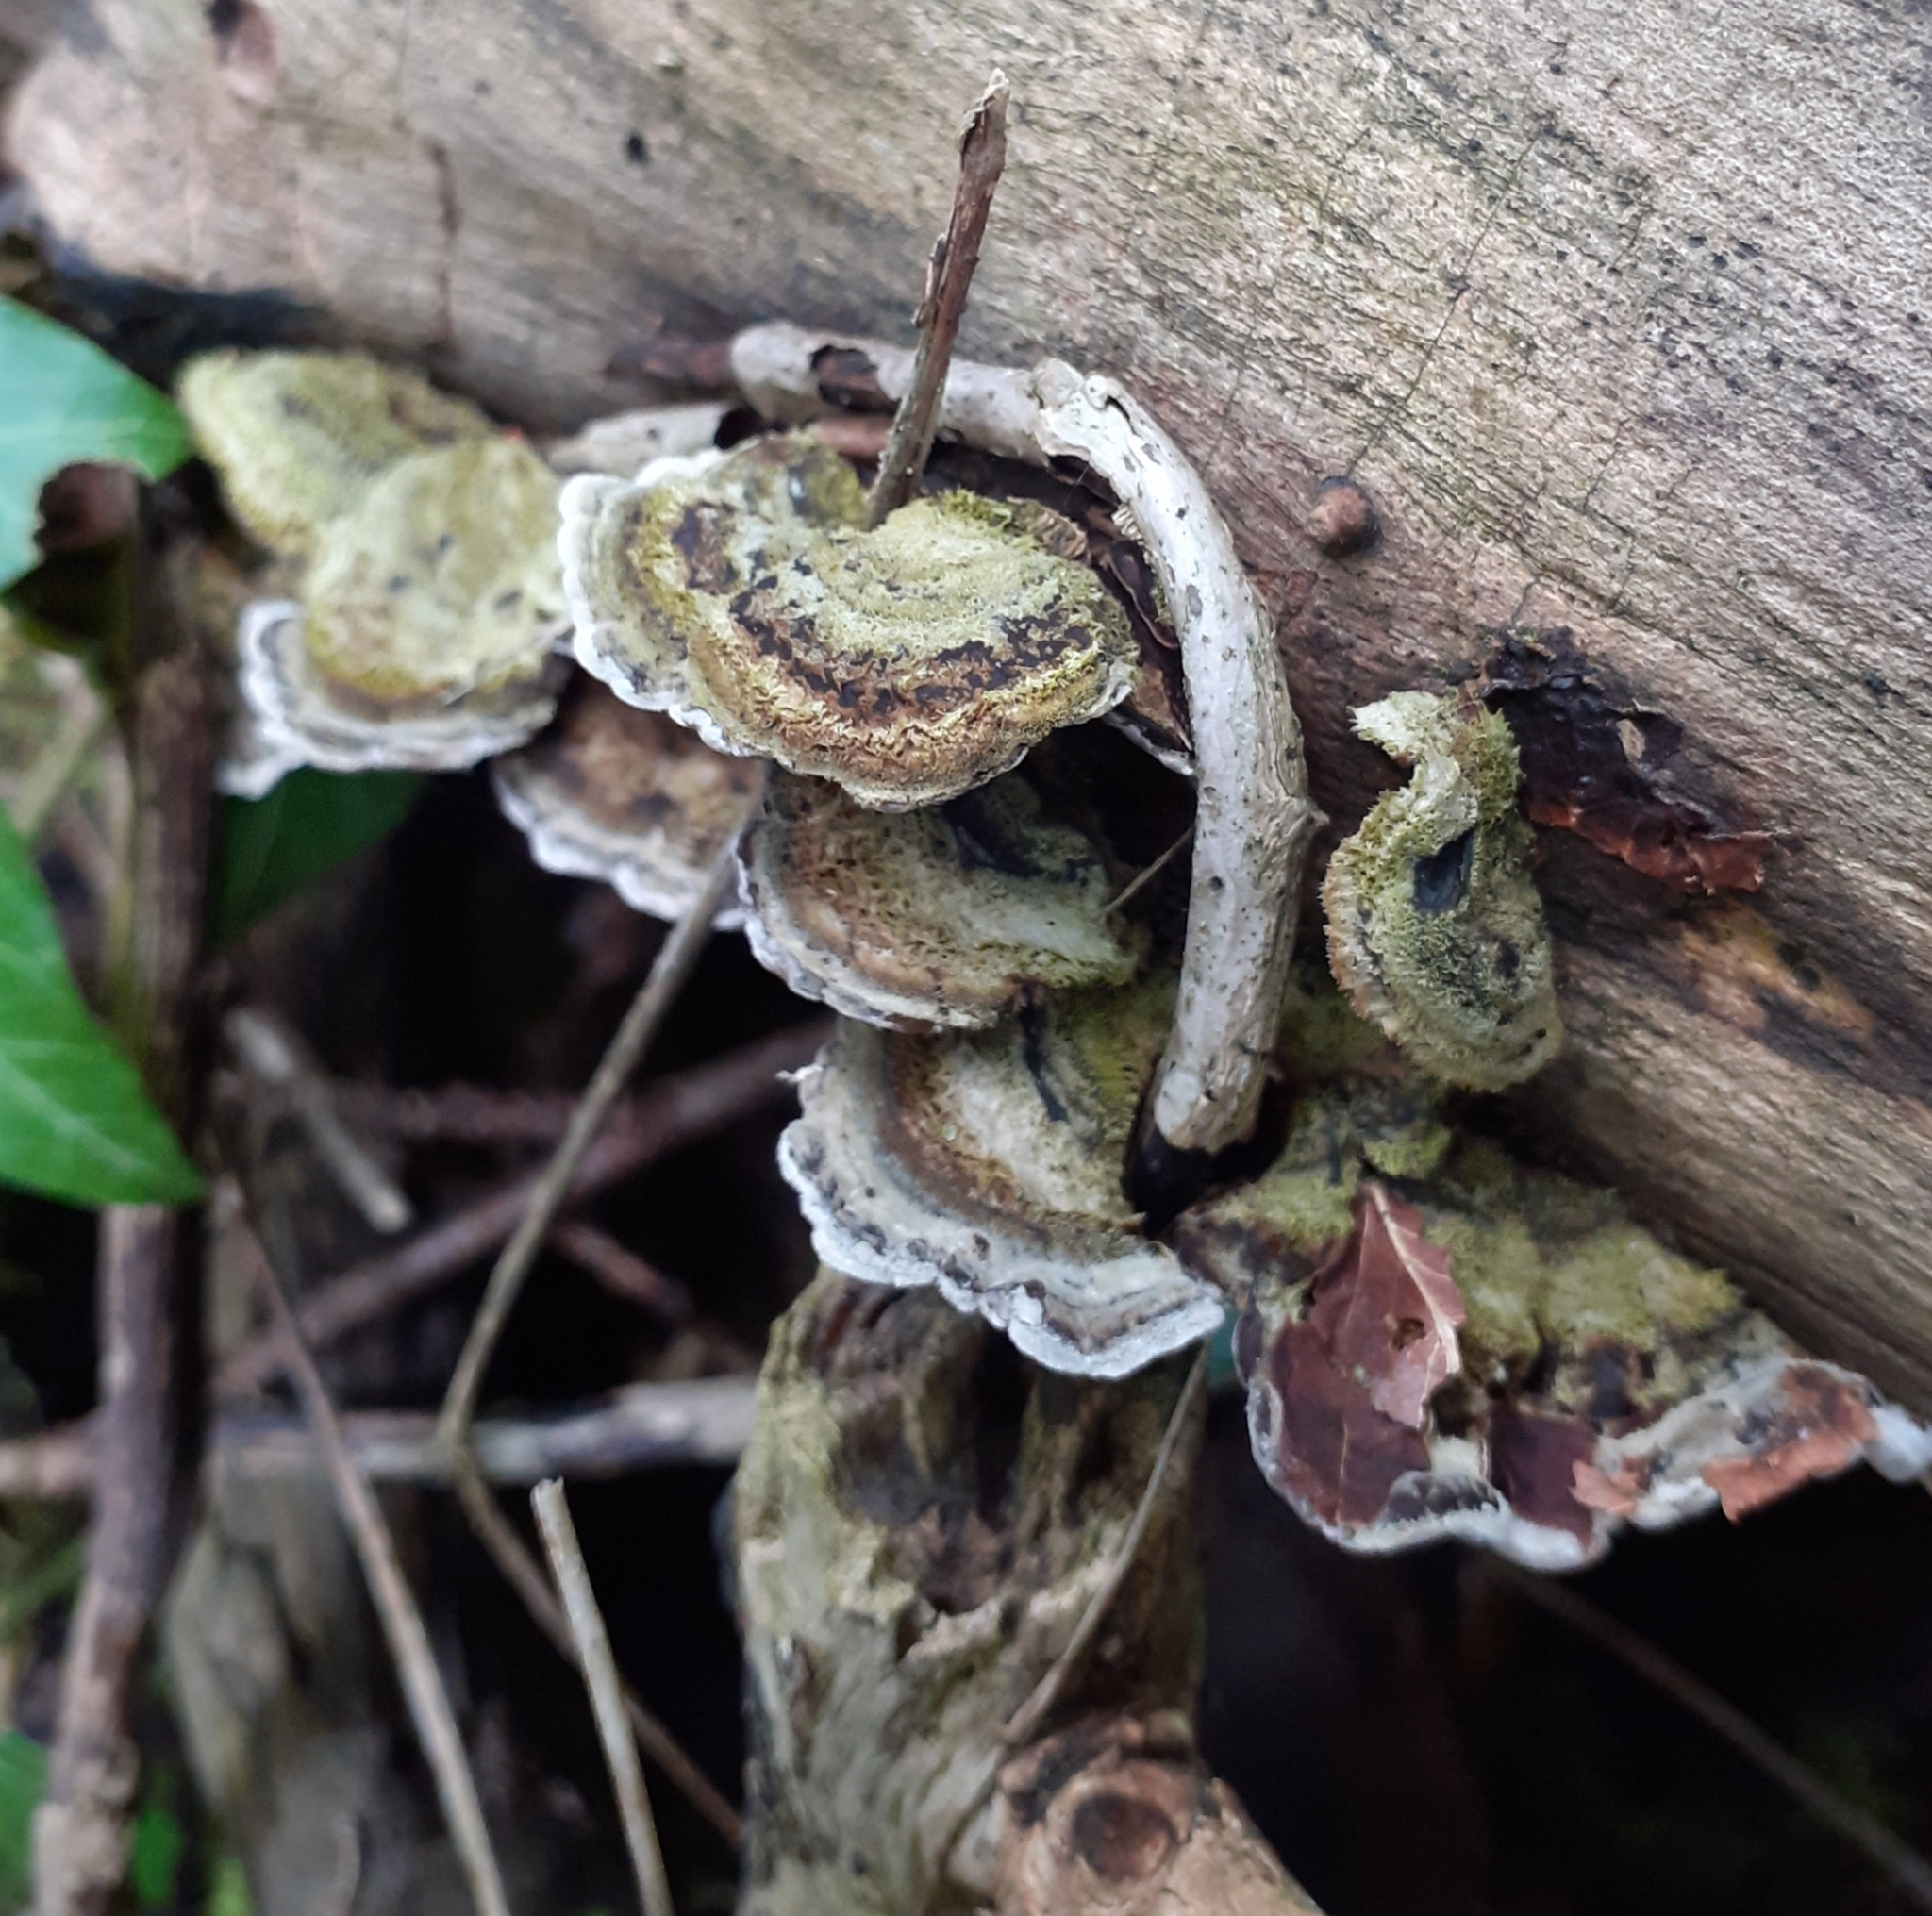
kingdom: Fungi
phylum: Basidiomycota
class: Agaricomycetes
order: Auriculariales
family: Auriculariaceae
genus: Auricularia
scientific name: Auricularia mesenterica
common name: Tripe fungus
